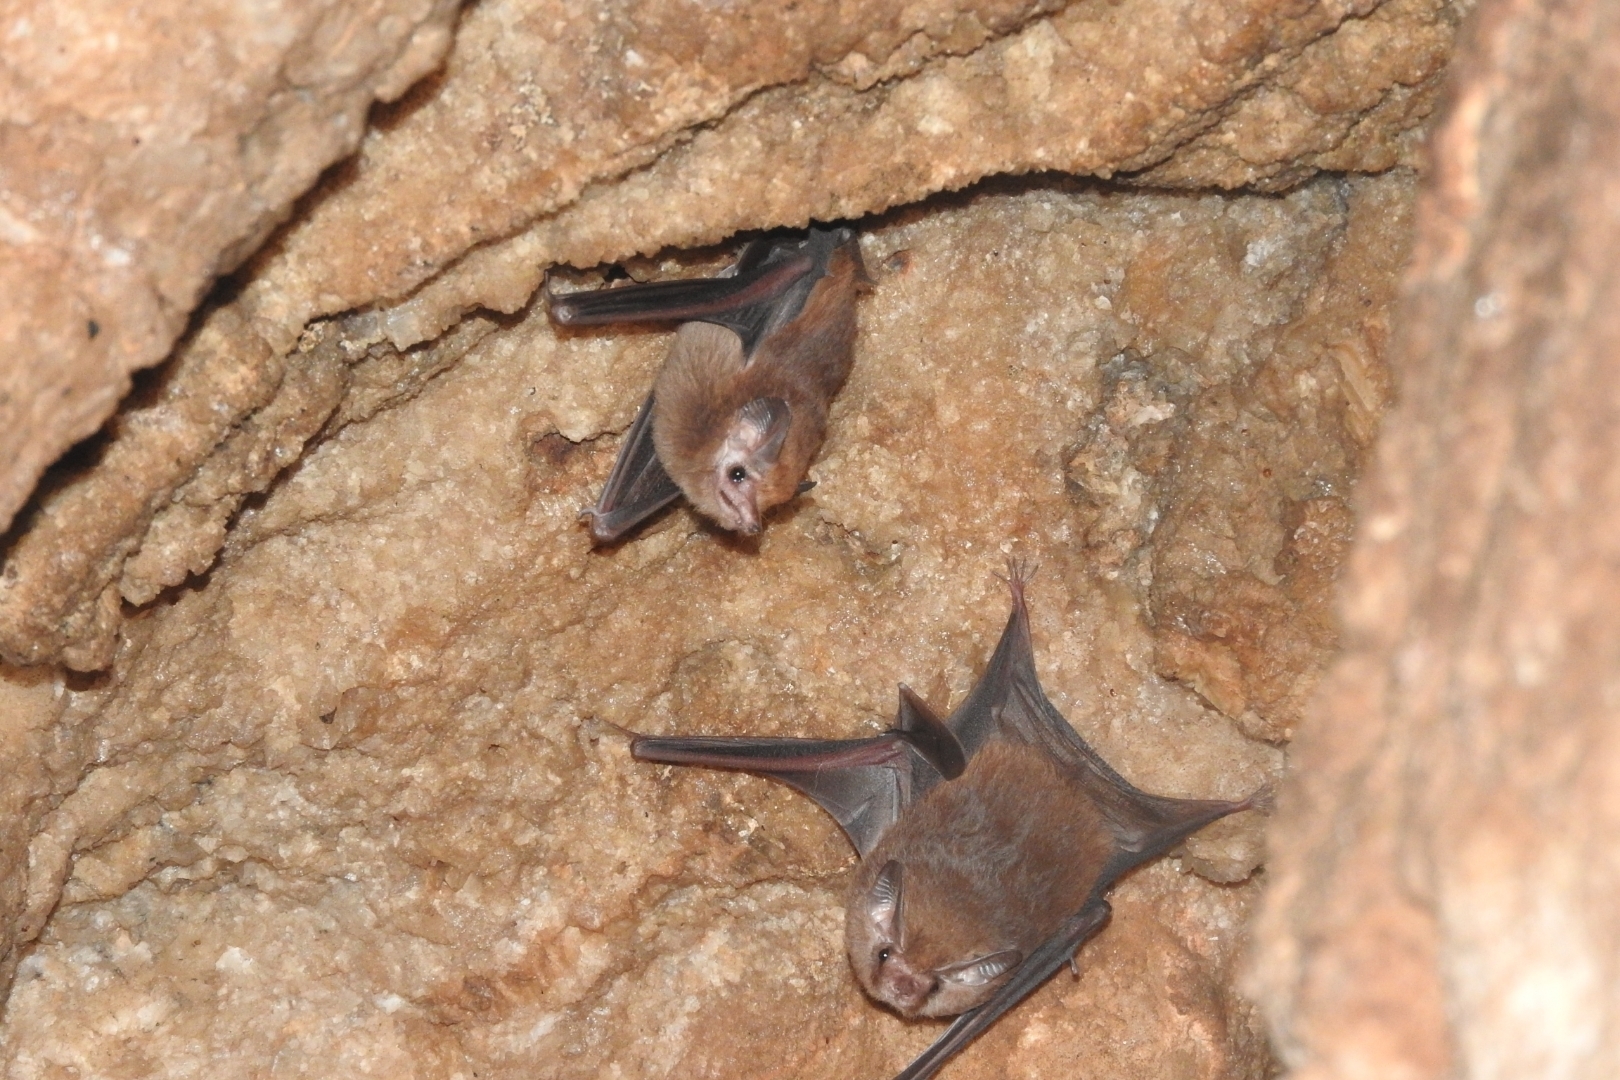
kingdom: Animalia
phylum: Chordata
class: Mammalia
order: Chiroptera
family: Emballonuridae
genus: Peropteryx
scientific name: Peropteryx macrotis
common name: Lesser dog-like bat
